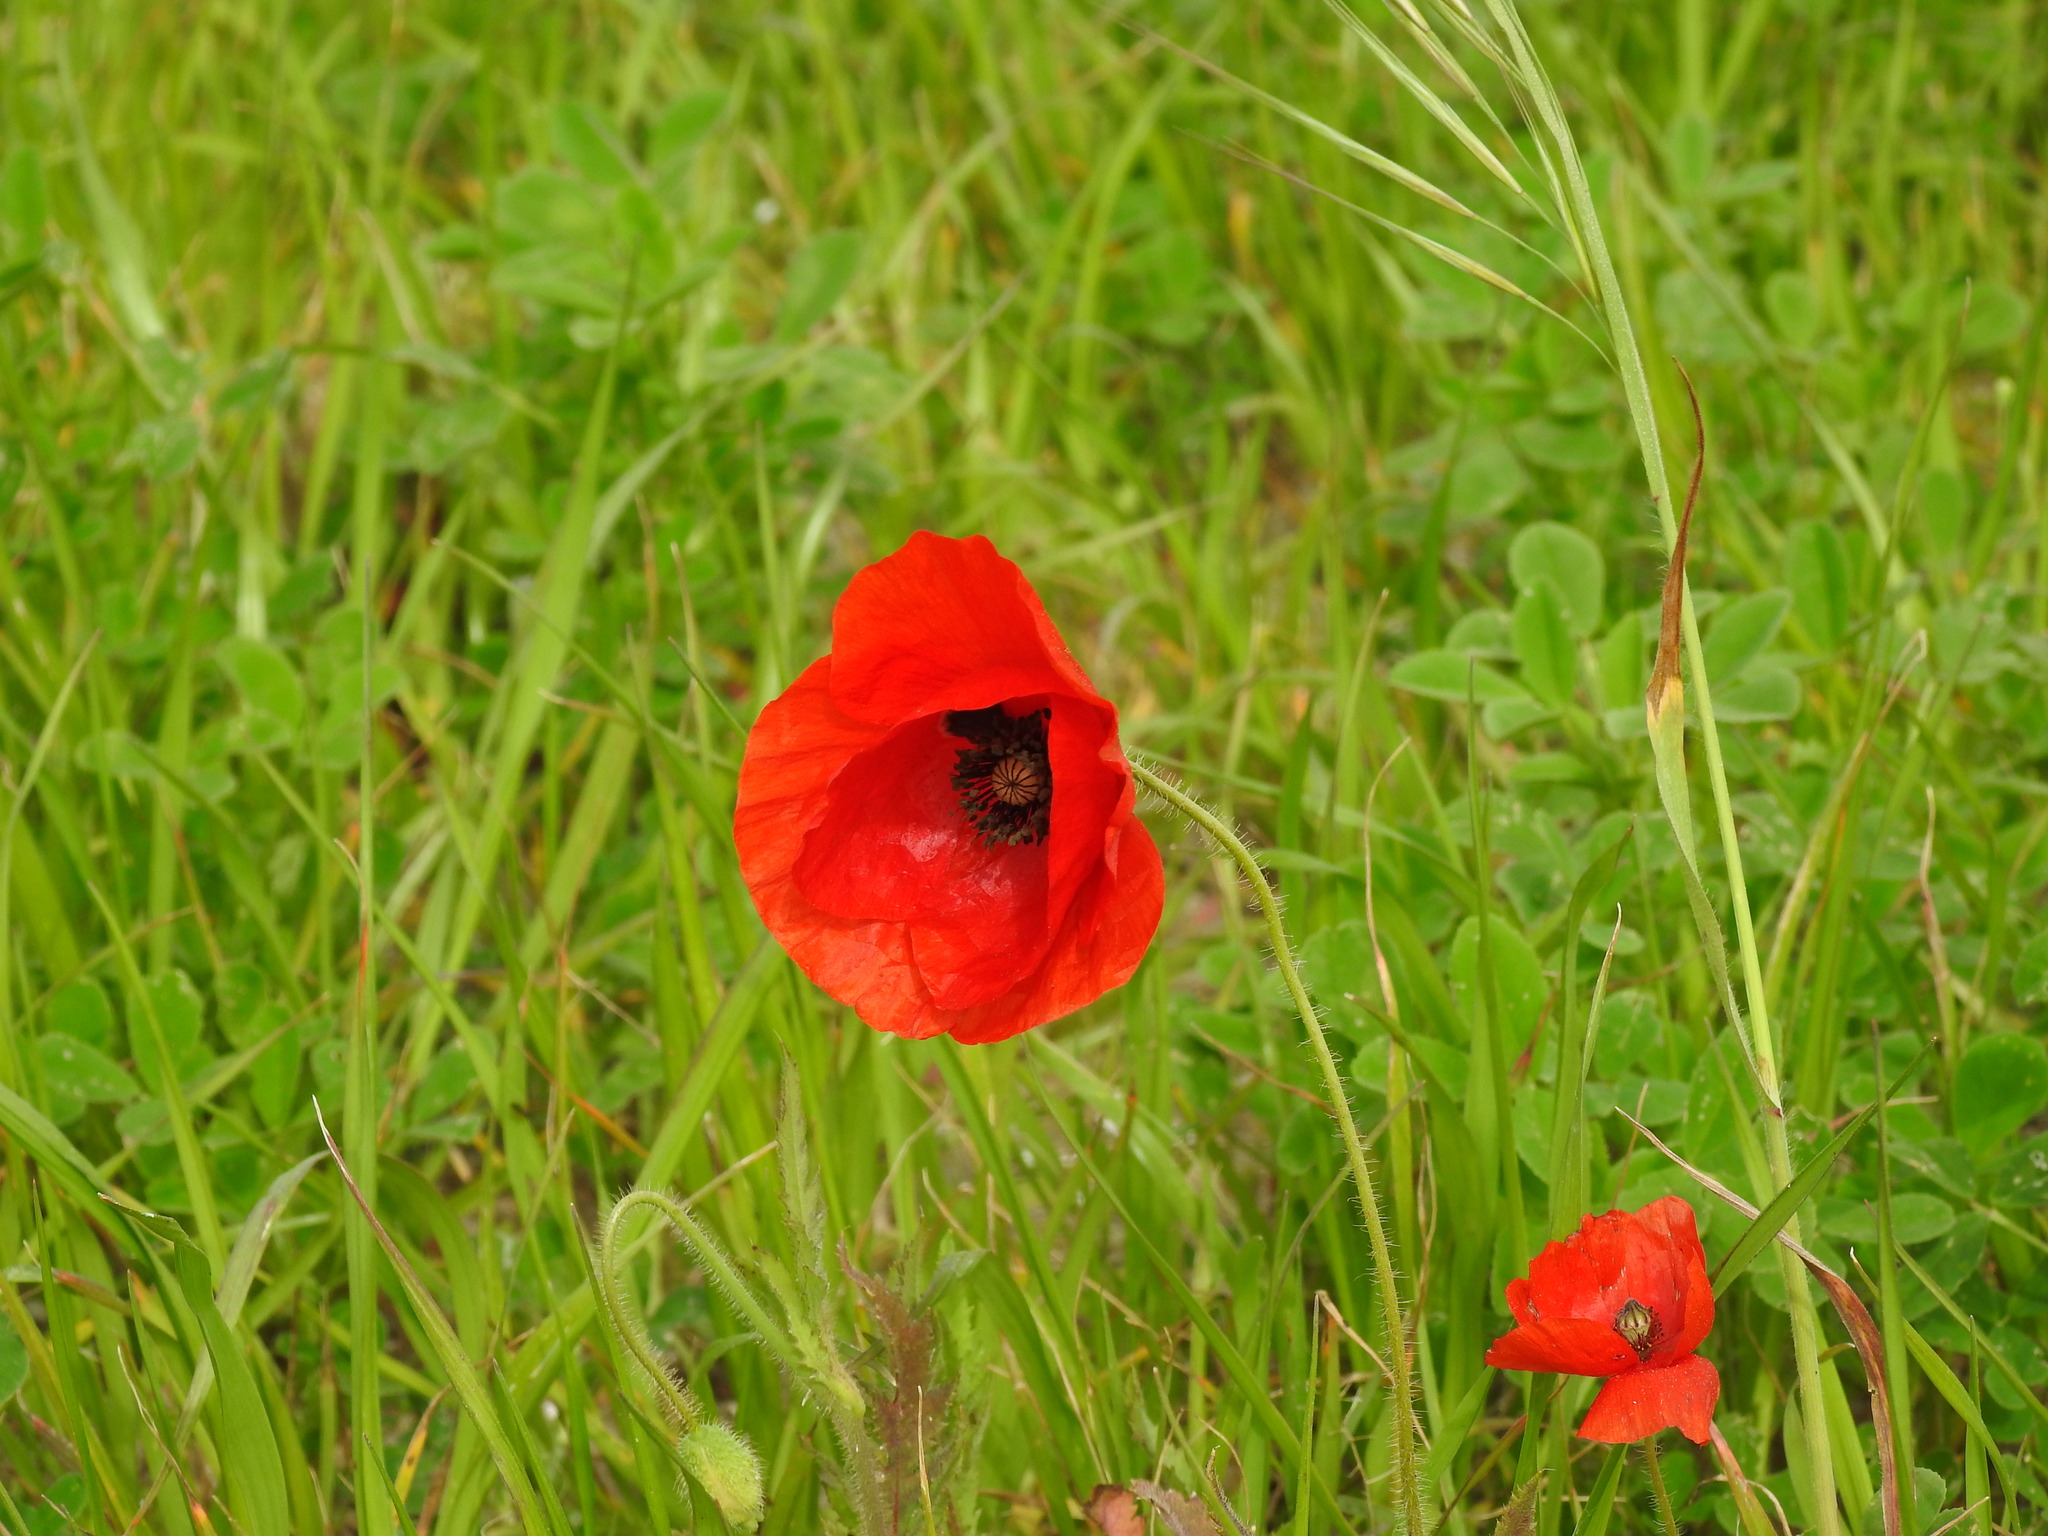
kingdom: Plantae
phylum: Tracheophyta
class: Magnoliopsida
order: Ranunculales
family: Papaveraceae
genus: Papaver
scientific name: Papaver rhoeas
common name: Corn poppy
